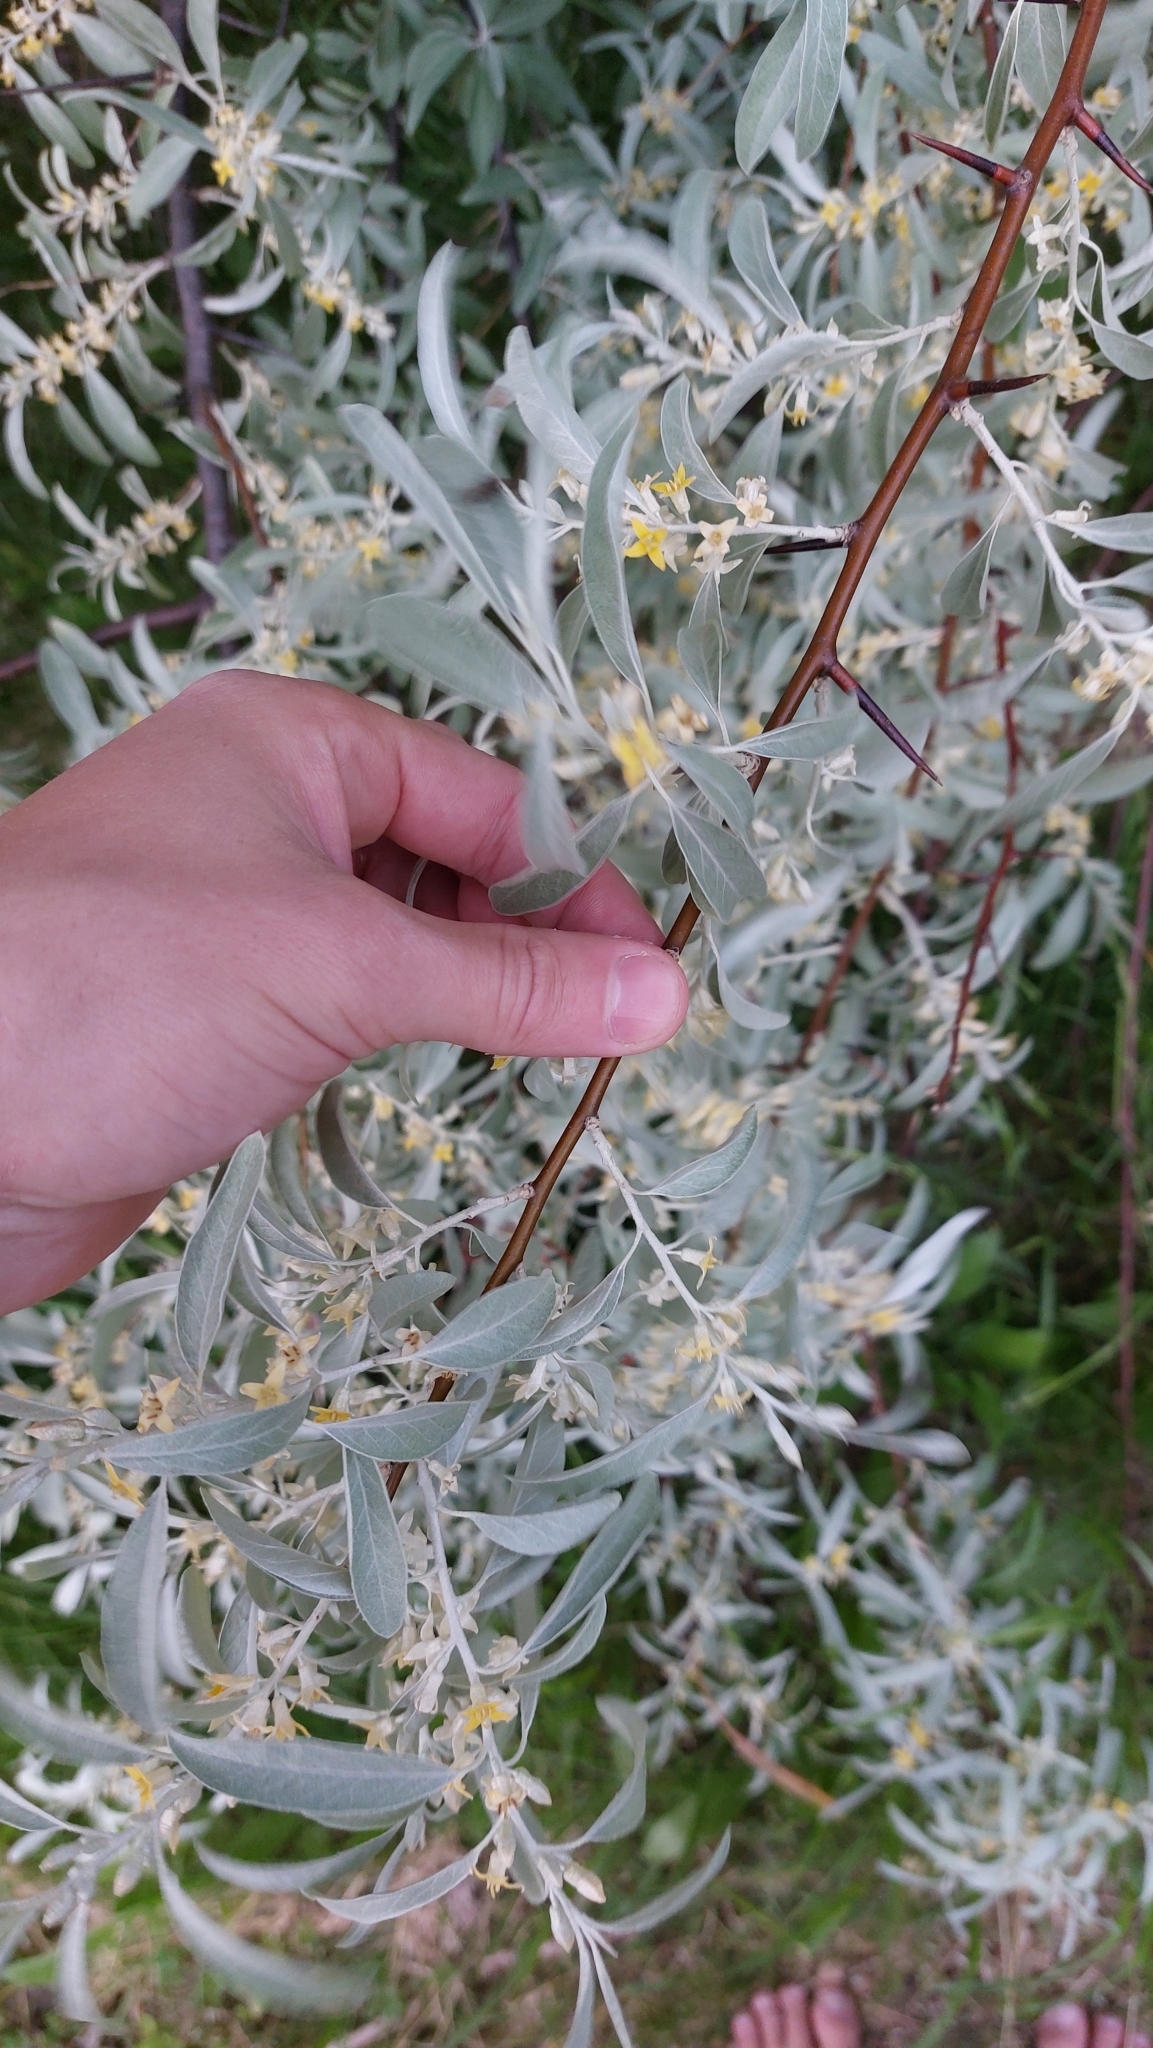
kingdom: Plantae
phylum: Tracheophyta
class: Magnoliopsida
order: Rosales
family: Elaeagnaceae
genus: Elaeagnus
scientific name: Elaeagnus angustifolia
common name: Russian olive
